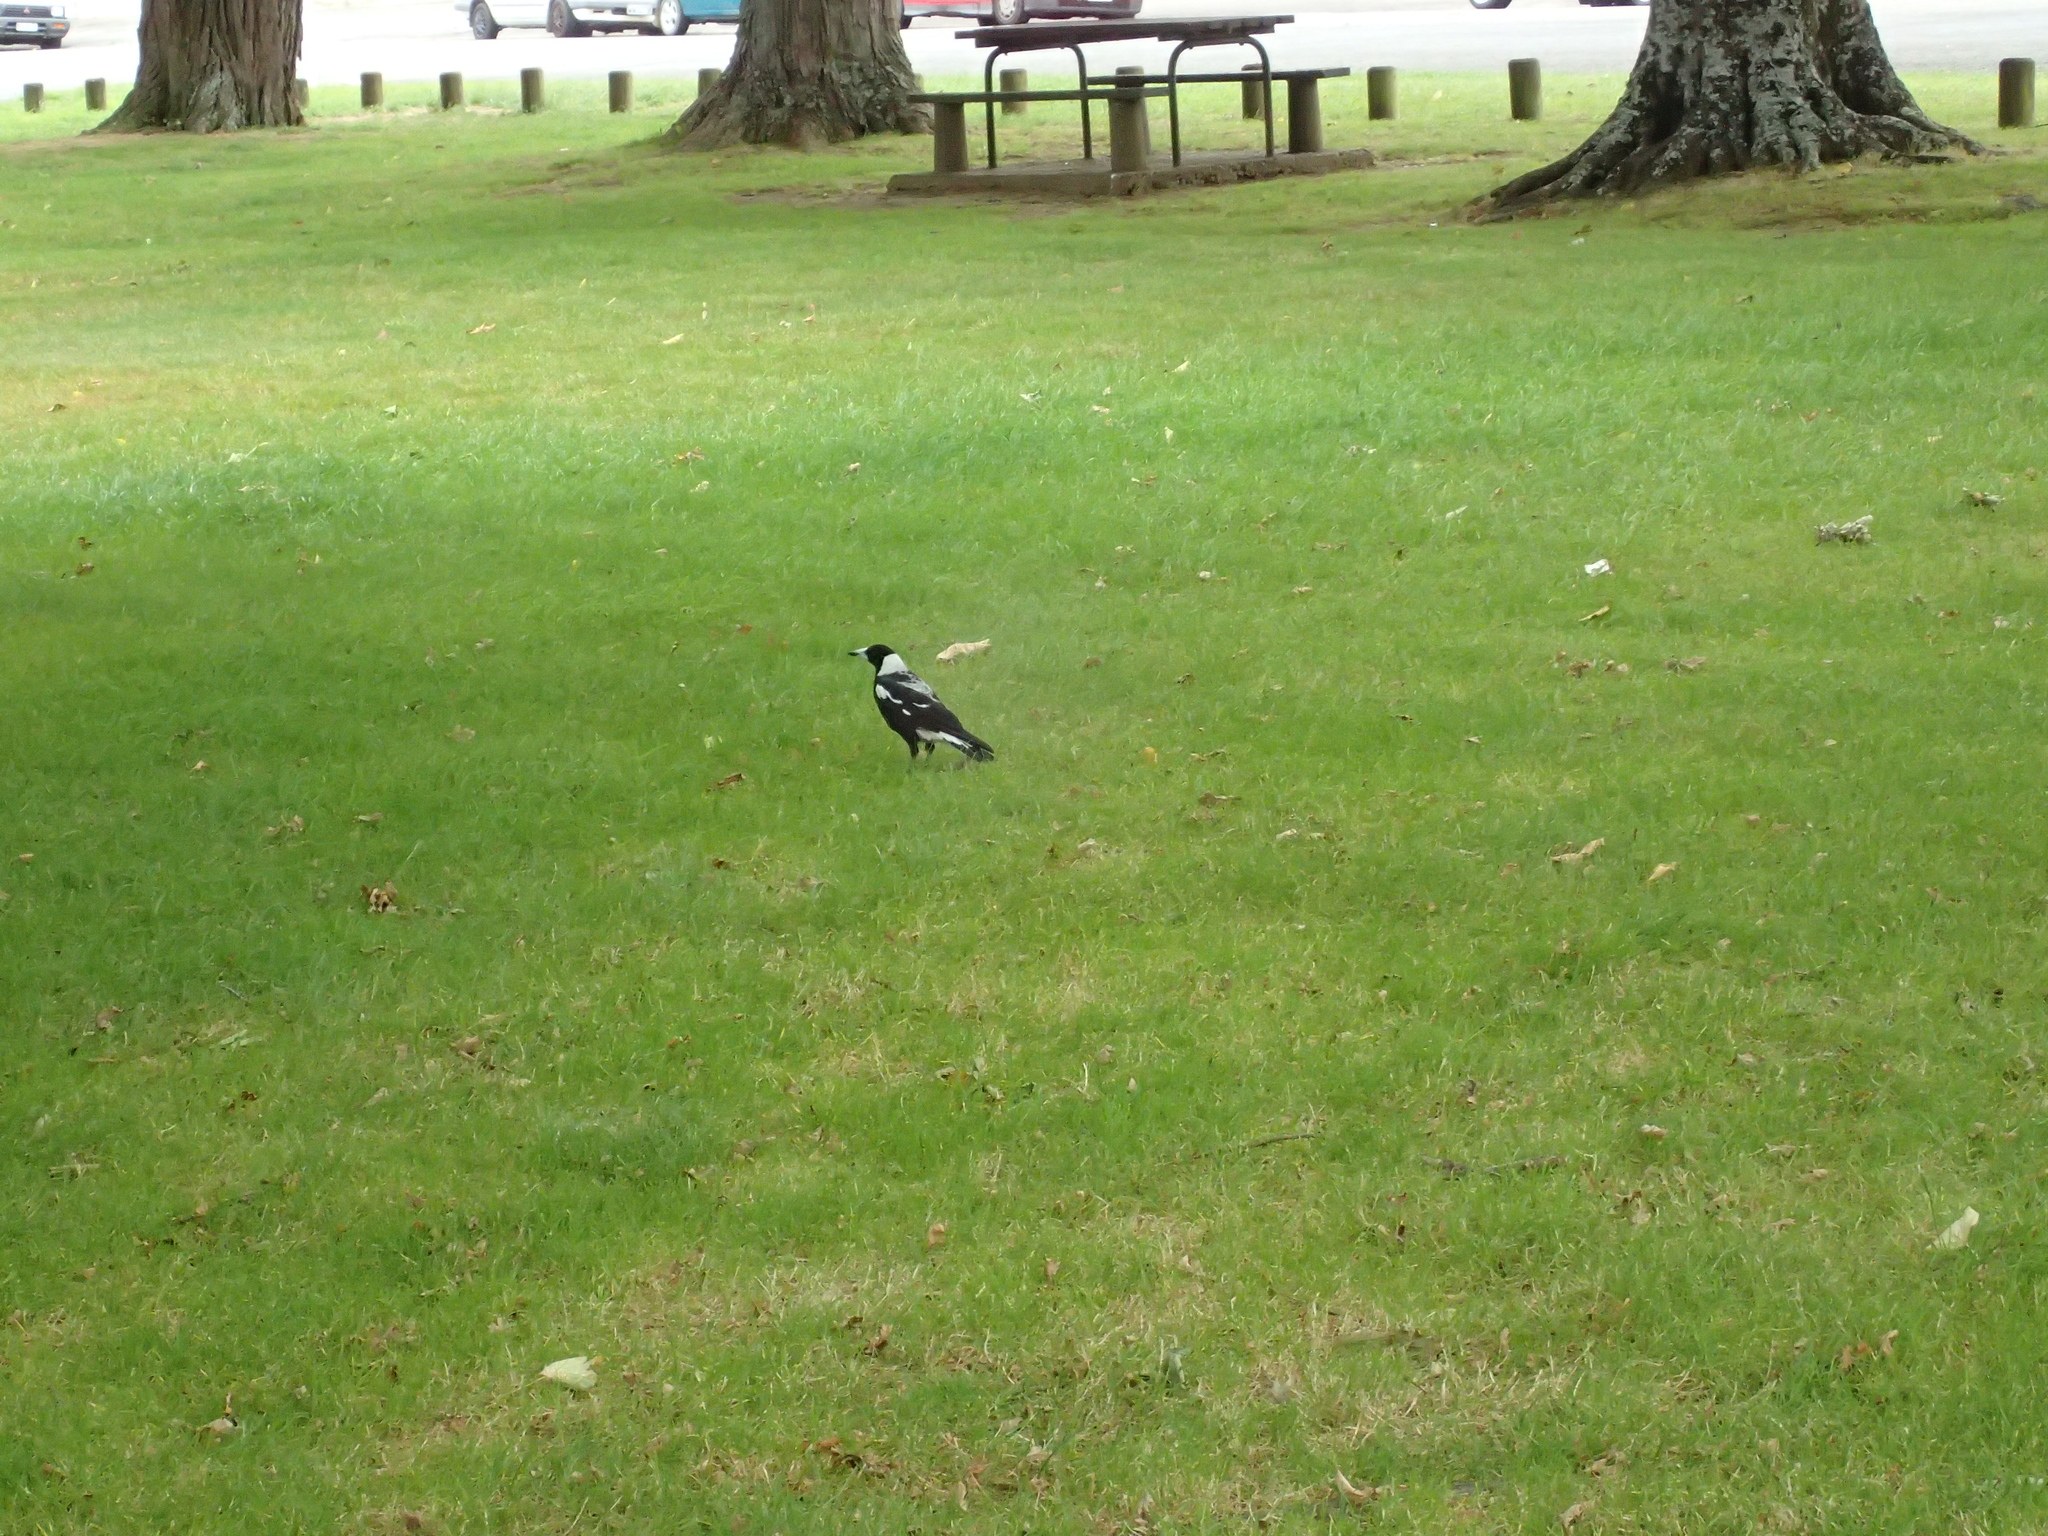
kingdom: Animalia
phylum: Chordata
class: Aves
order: Passeriformes
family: Cracticidae
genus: Gymnorhina
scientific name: Gymnorhina tibicen
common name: Australian magpie
